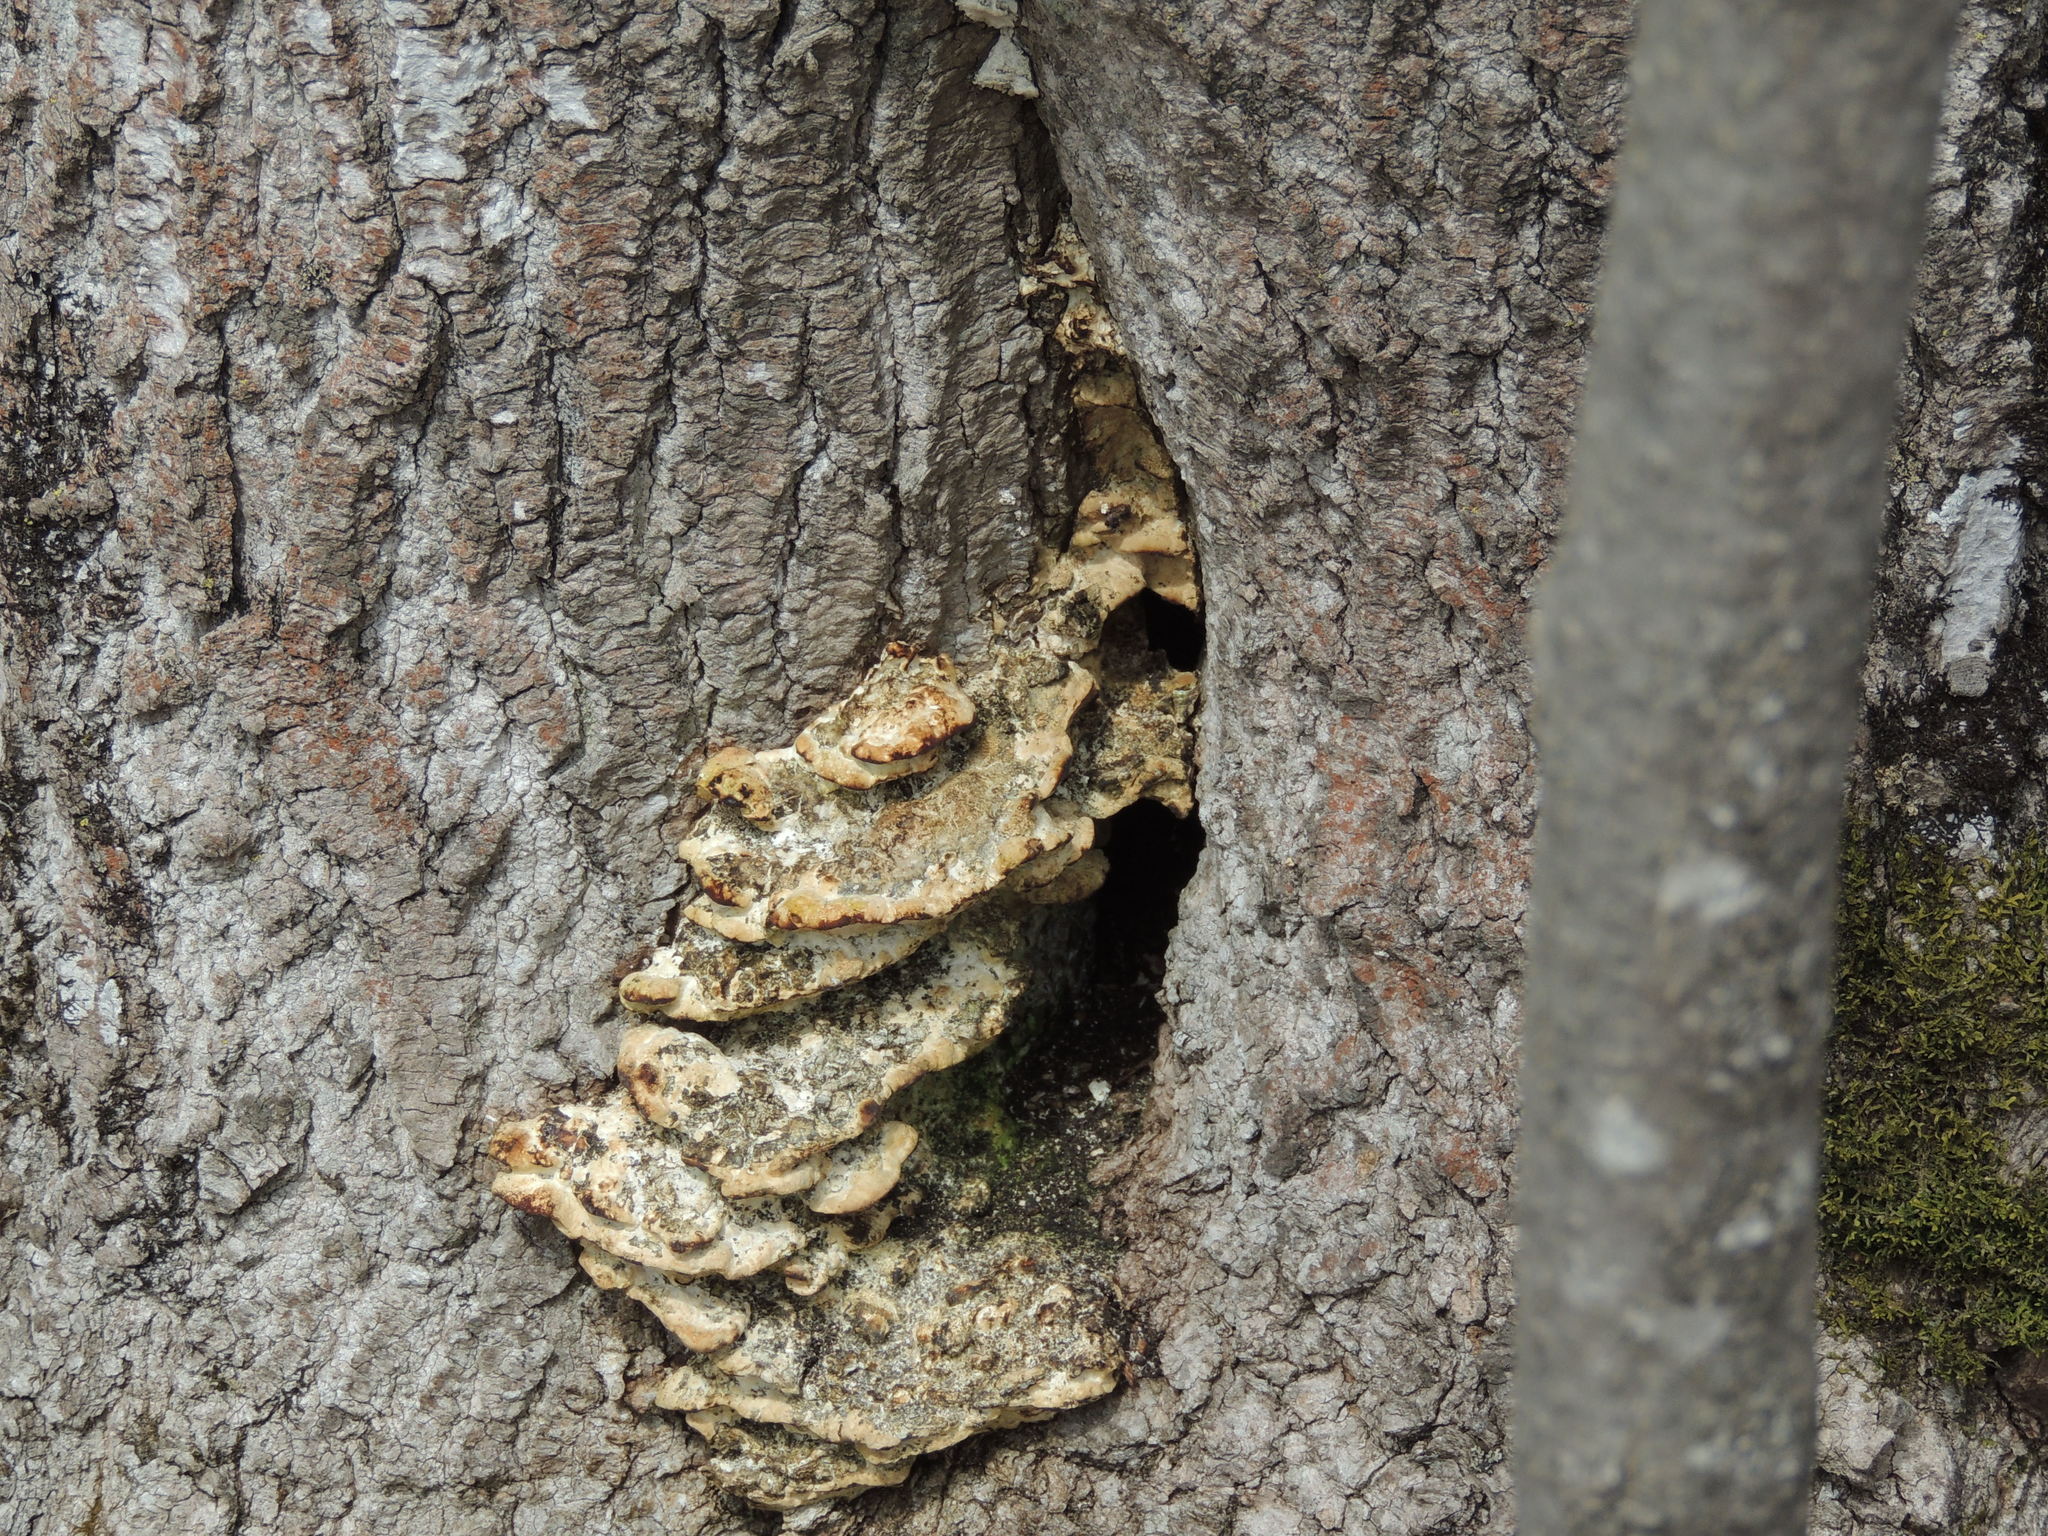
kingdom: Fungi
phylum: Basidiomycota
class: Agaricomycetes
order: Polyporales
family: Meruliaceae
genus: Climacodon
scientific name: Climacodon septentrionalis
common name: Northern tooth
